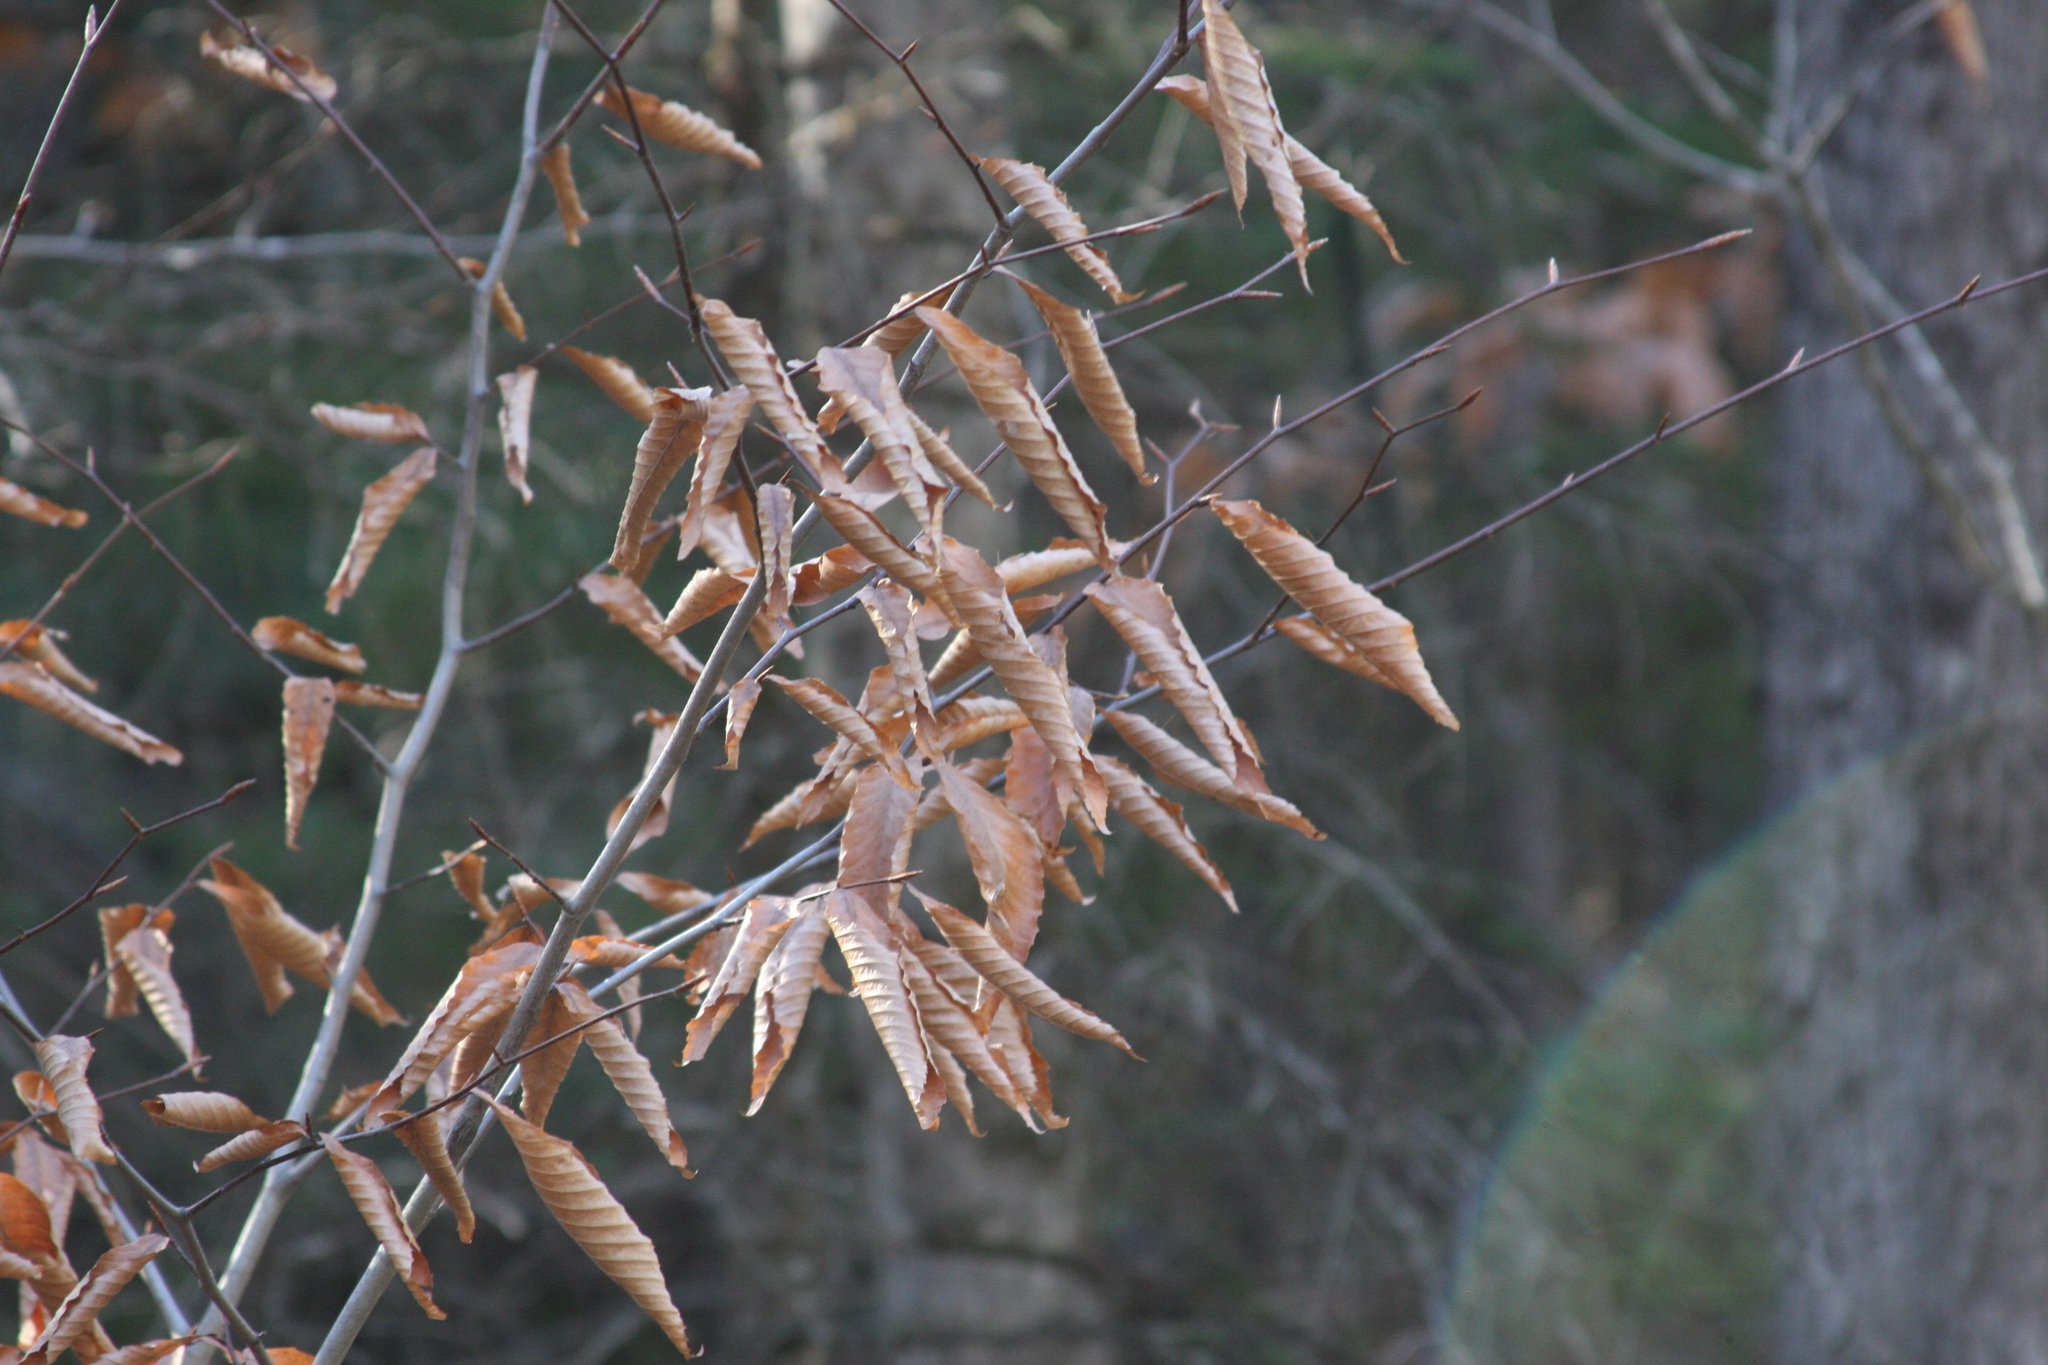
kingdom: Plantae
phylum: Tracheophyta
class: Magnoliopsida
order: Fagales
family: Fagaceae
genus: Fagus
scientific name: Fagus grandifolia
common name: American beech
